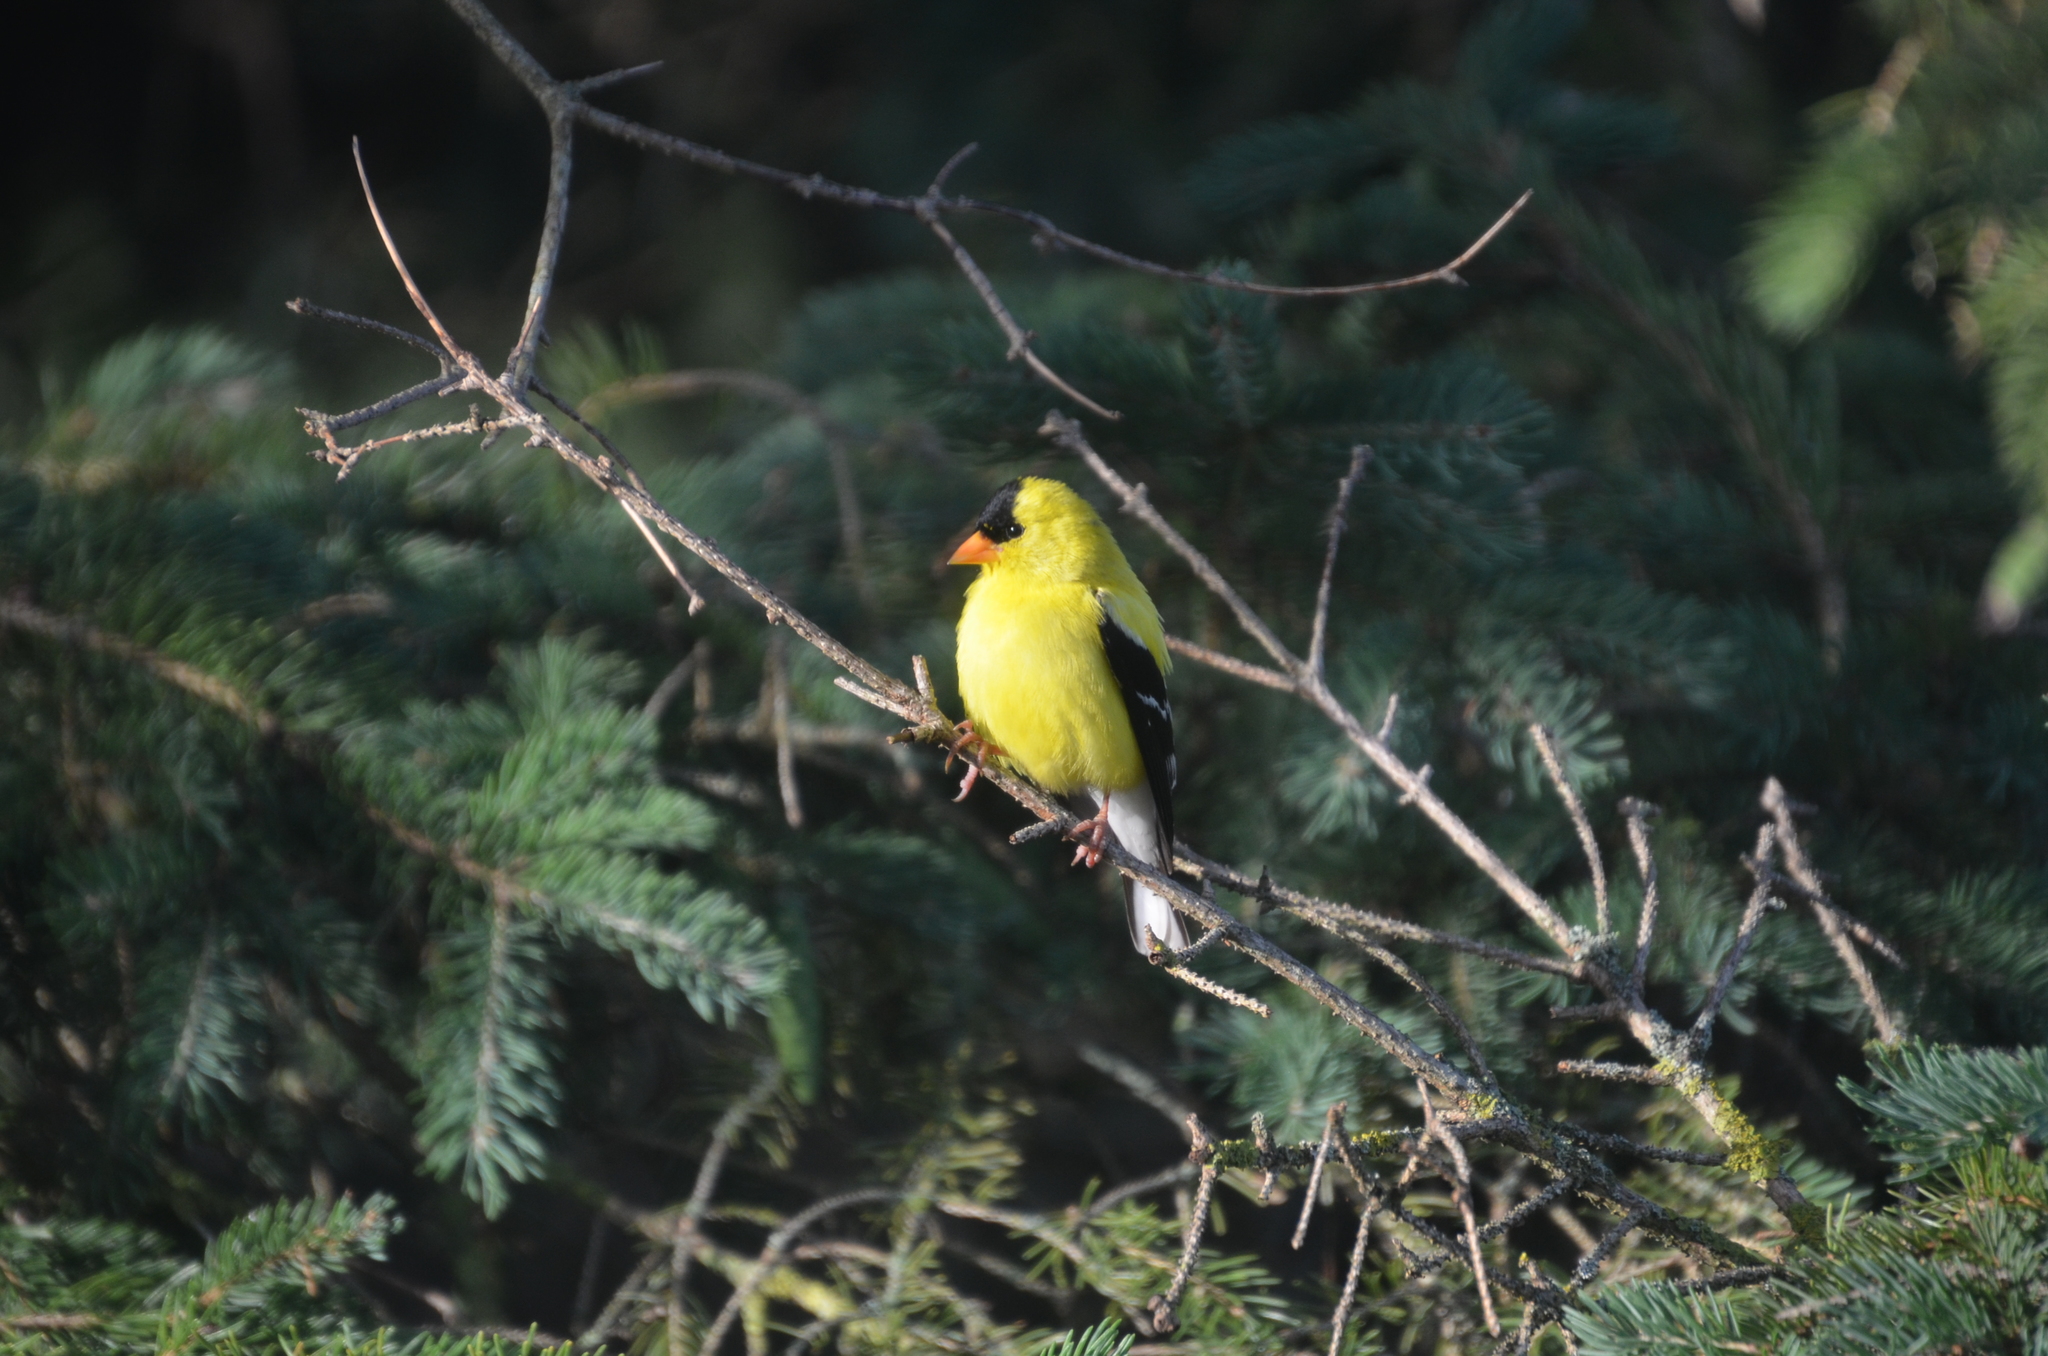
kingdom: Animalia
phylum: Chordata
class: Aves
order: Passeriformes
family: Fringillidae
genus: Spinus
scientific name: Spinus tristis
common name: American goldfinch
